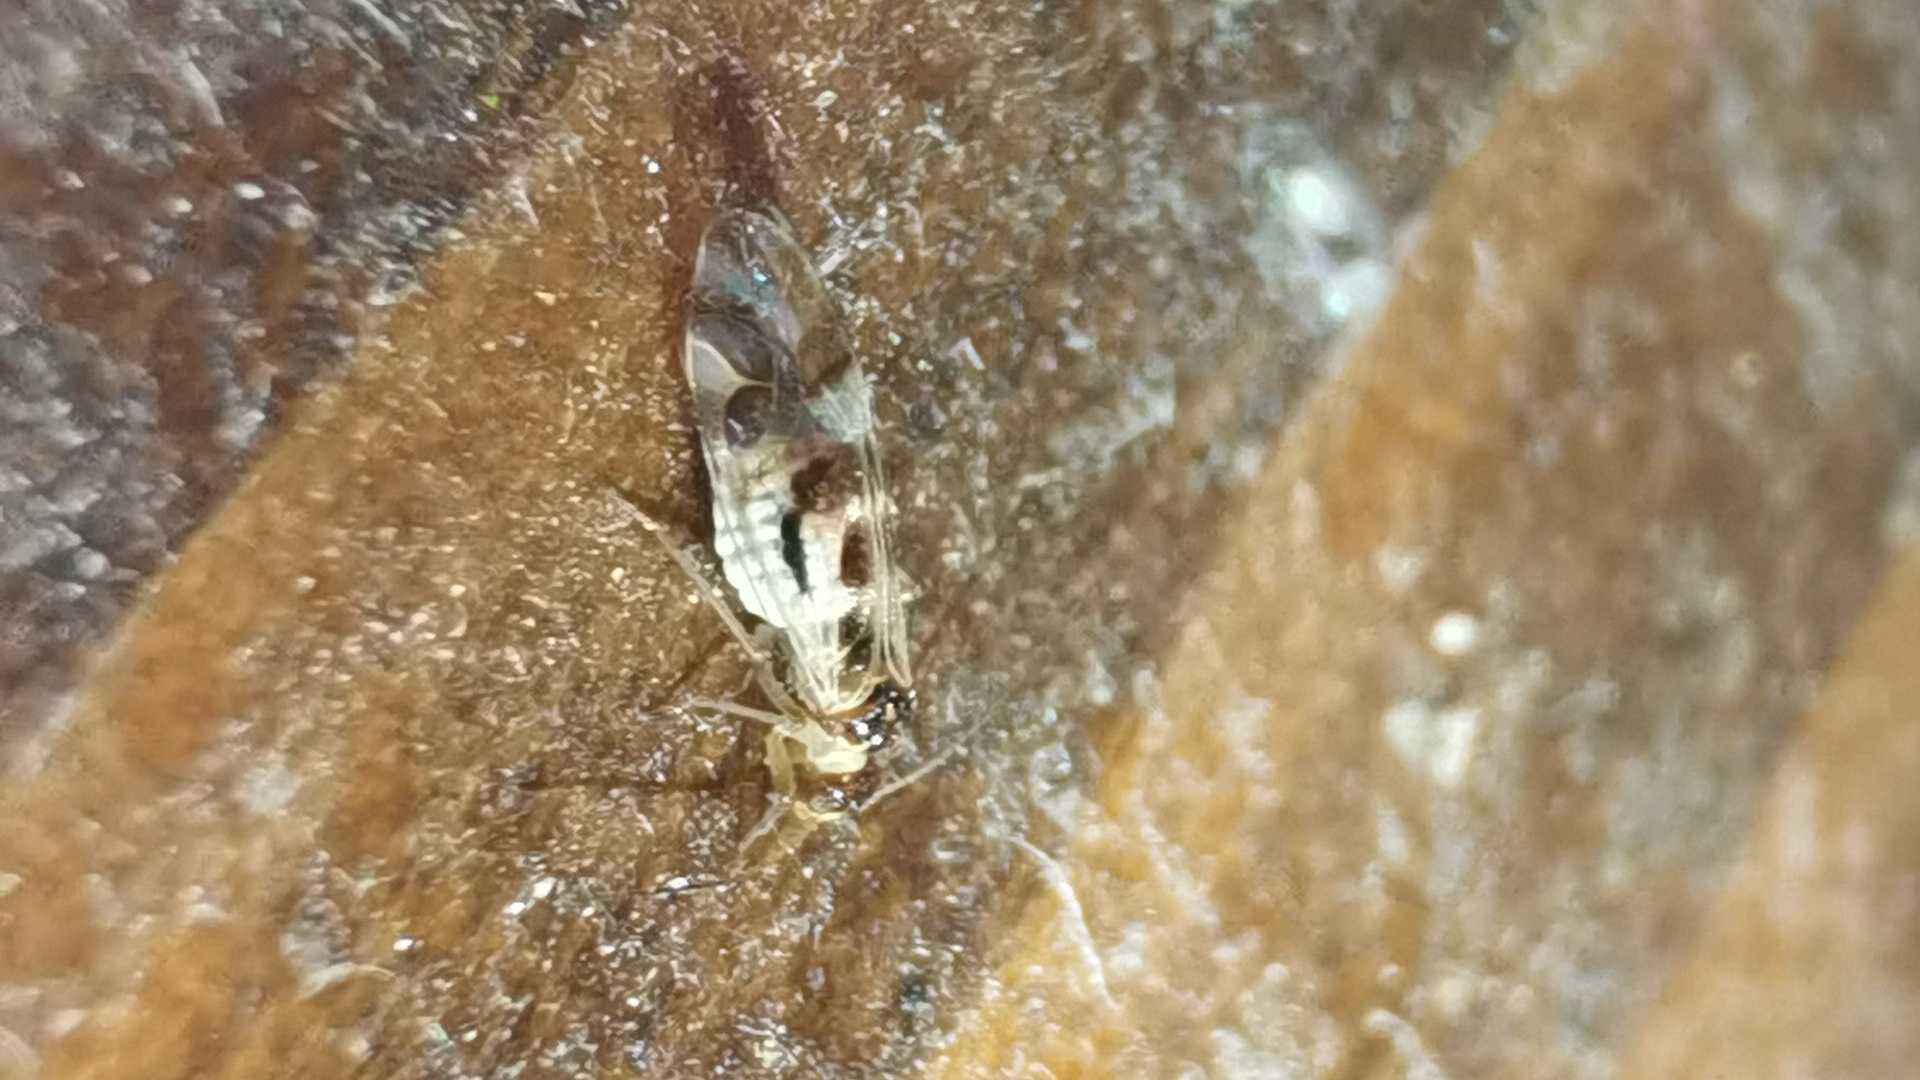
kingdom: Animalia
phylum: Arthropoda
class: Insecta
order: Psocodea
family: Stenopsocidae
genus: Graphopsocus
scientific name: Graphopsocus cruciatus
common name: Lizard bark louse
